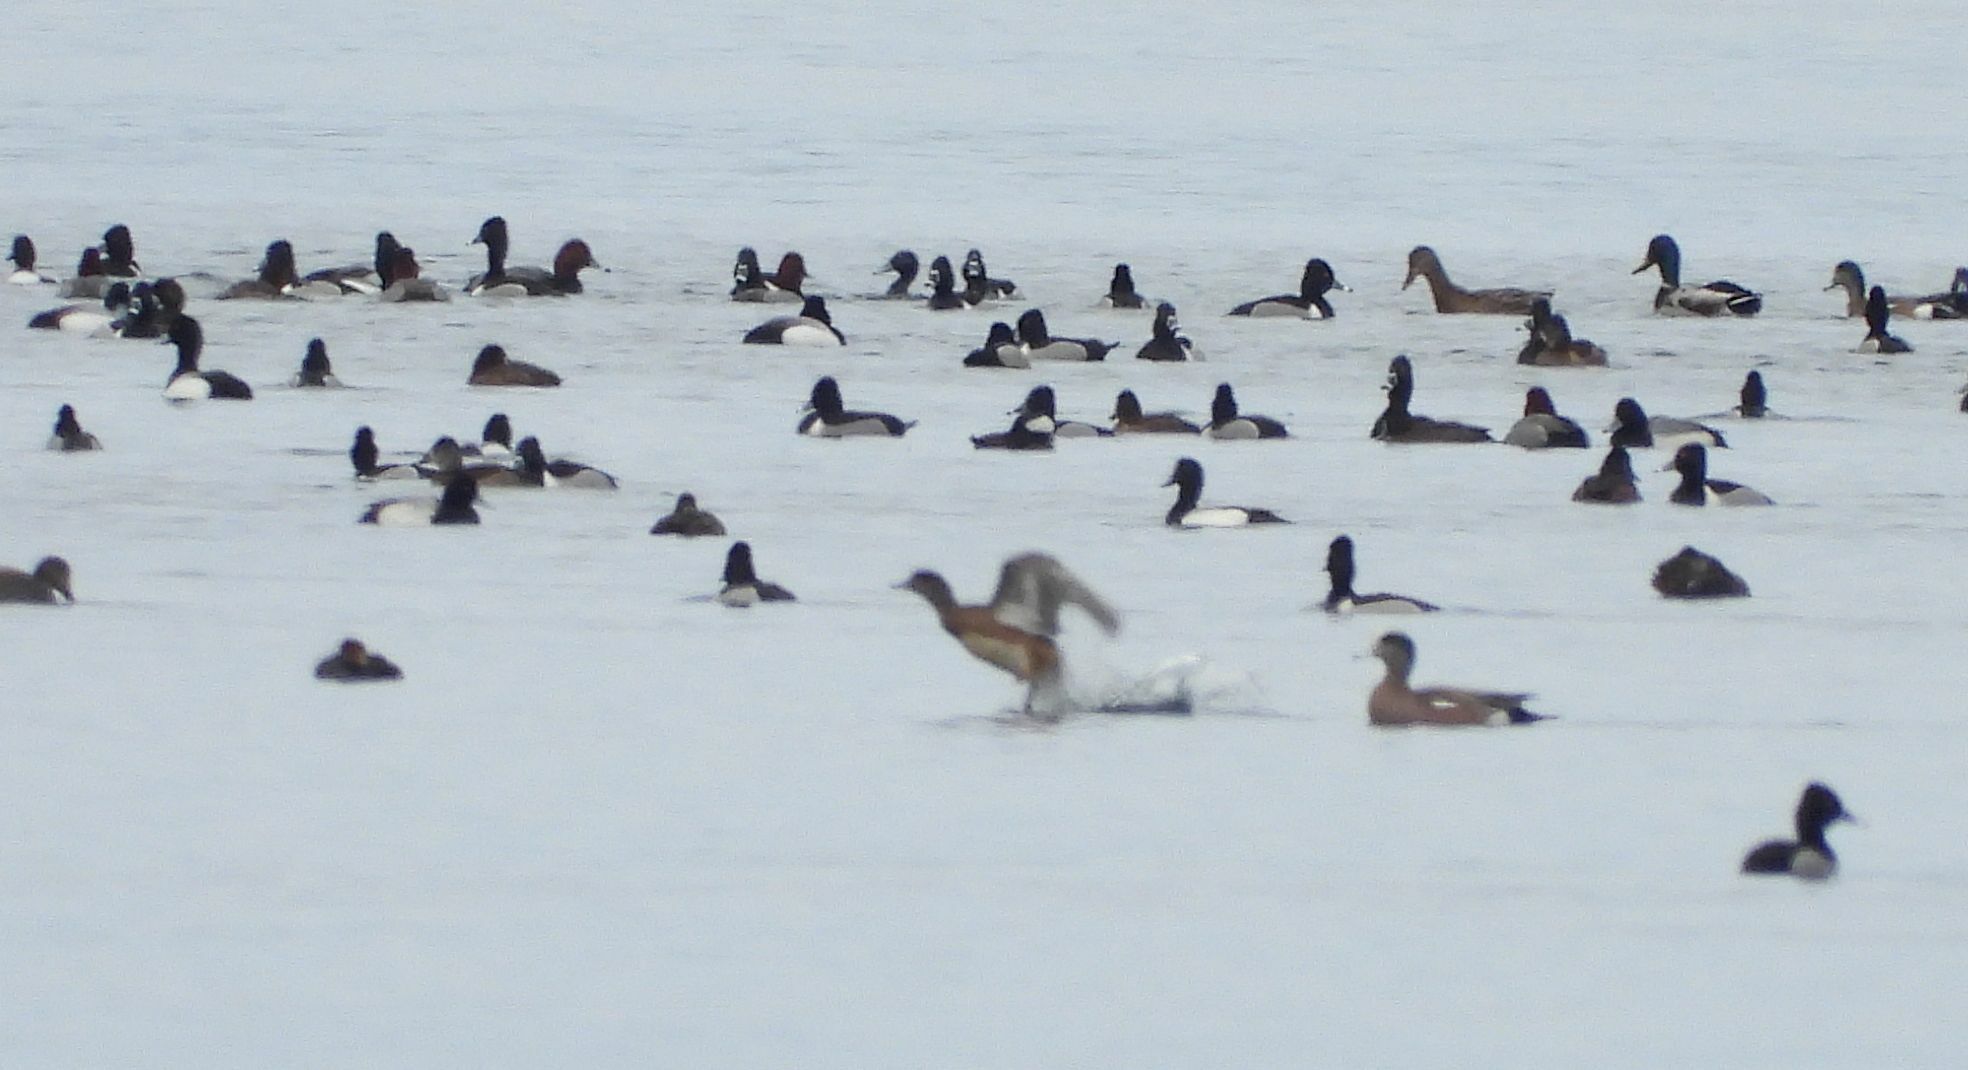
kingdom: Animalia
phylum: Chordata
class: Aves
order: Anseriformes
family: Anatidae
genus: Aythya
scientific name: Aythya collaris
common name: Ring-necked duck
